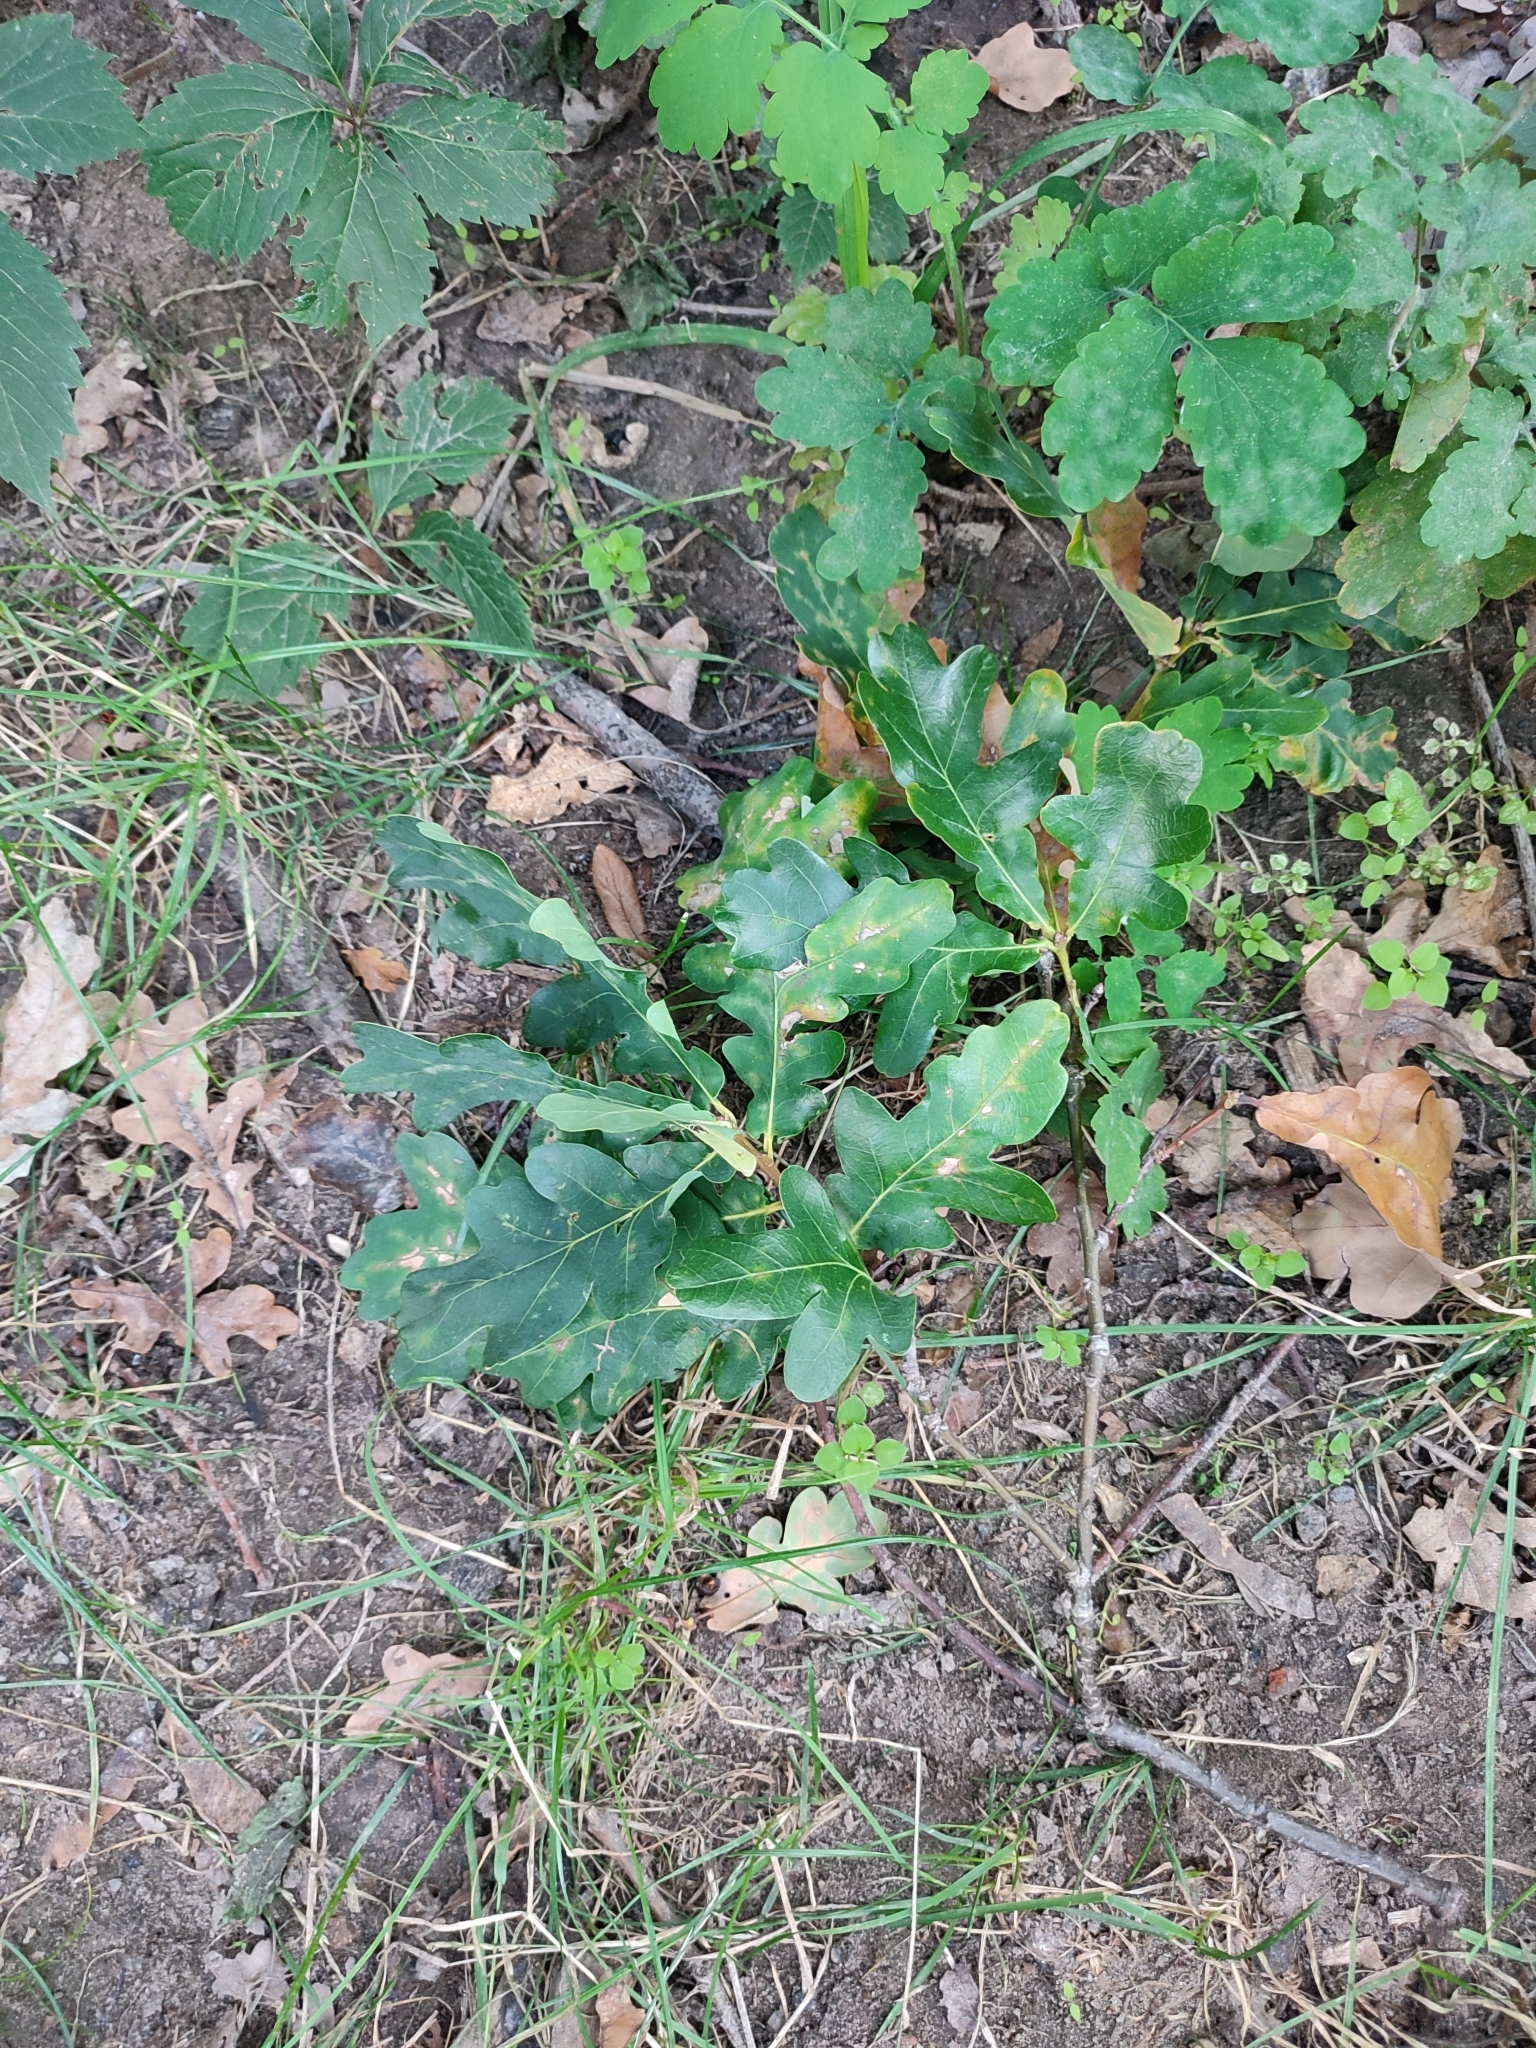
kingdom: Plantae
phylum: Tracheophyta
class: Magnoliopsida
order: Fagales
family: Fagaceae
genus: Quercus
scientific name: Quercus robur
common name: Pedunculate oak
